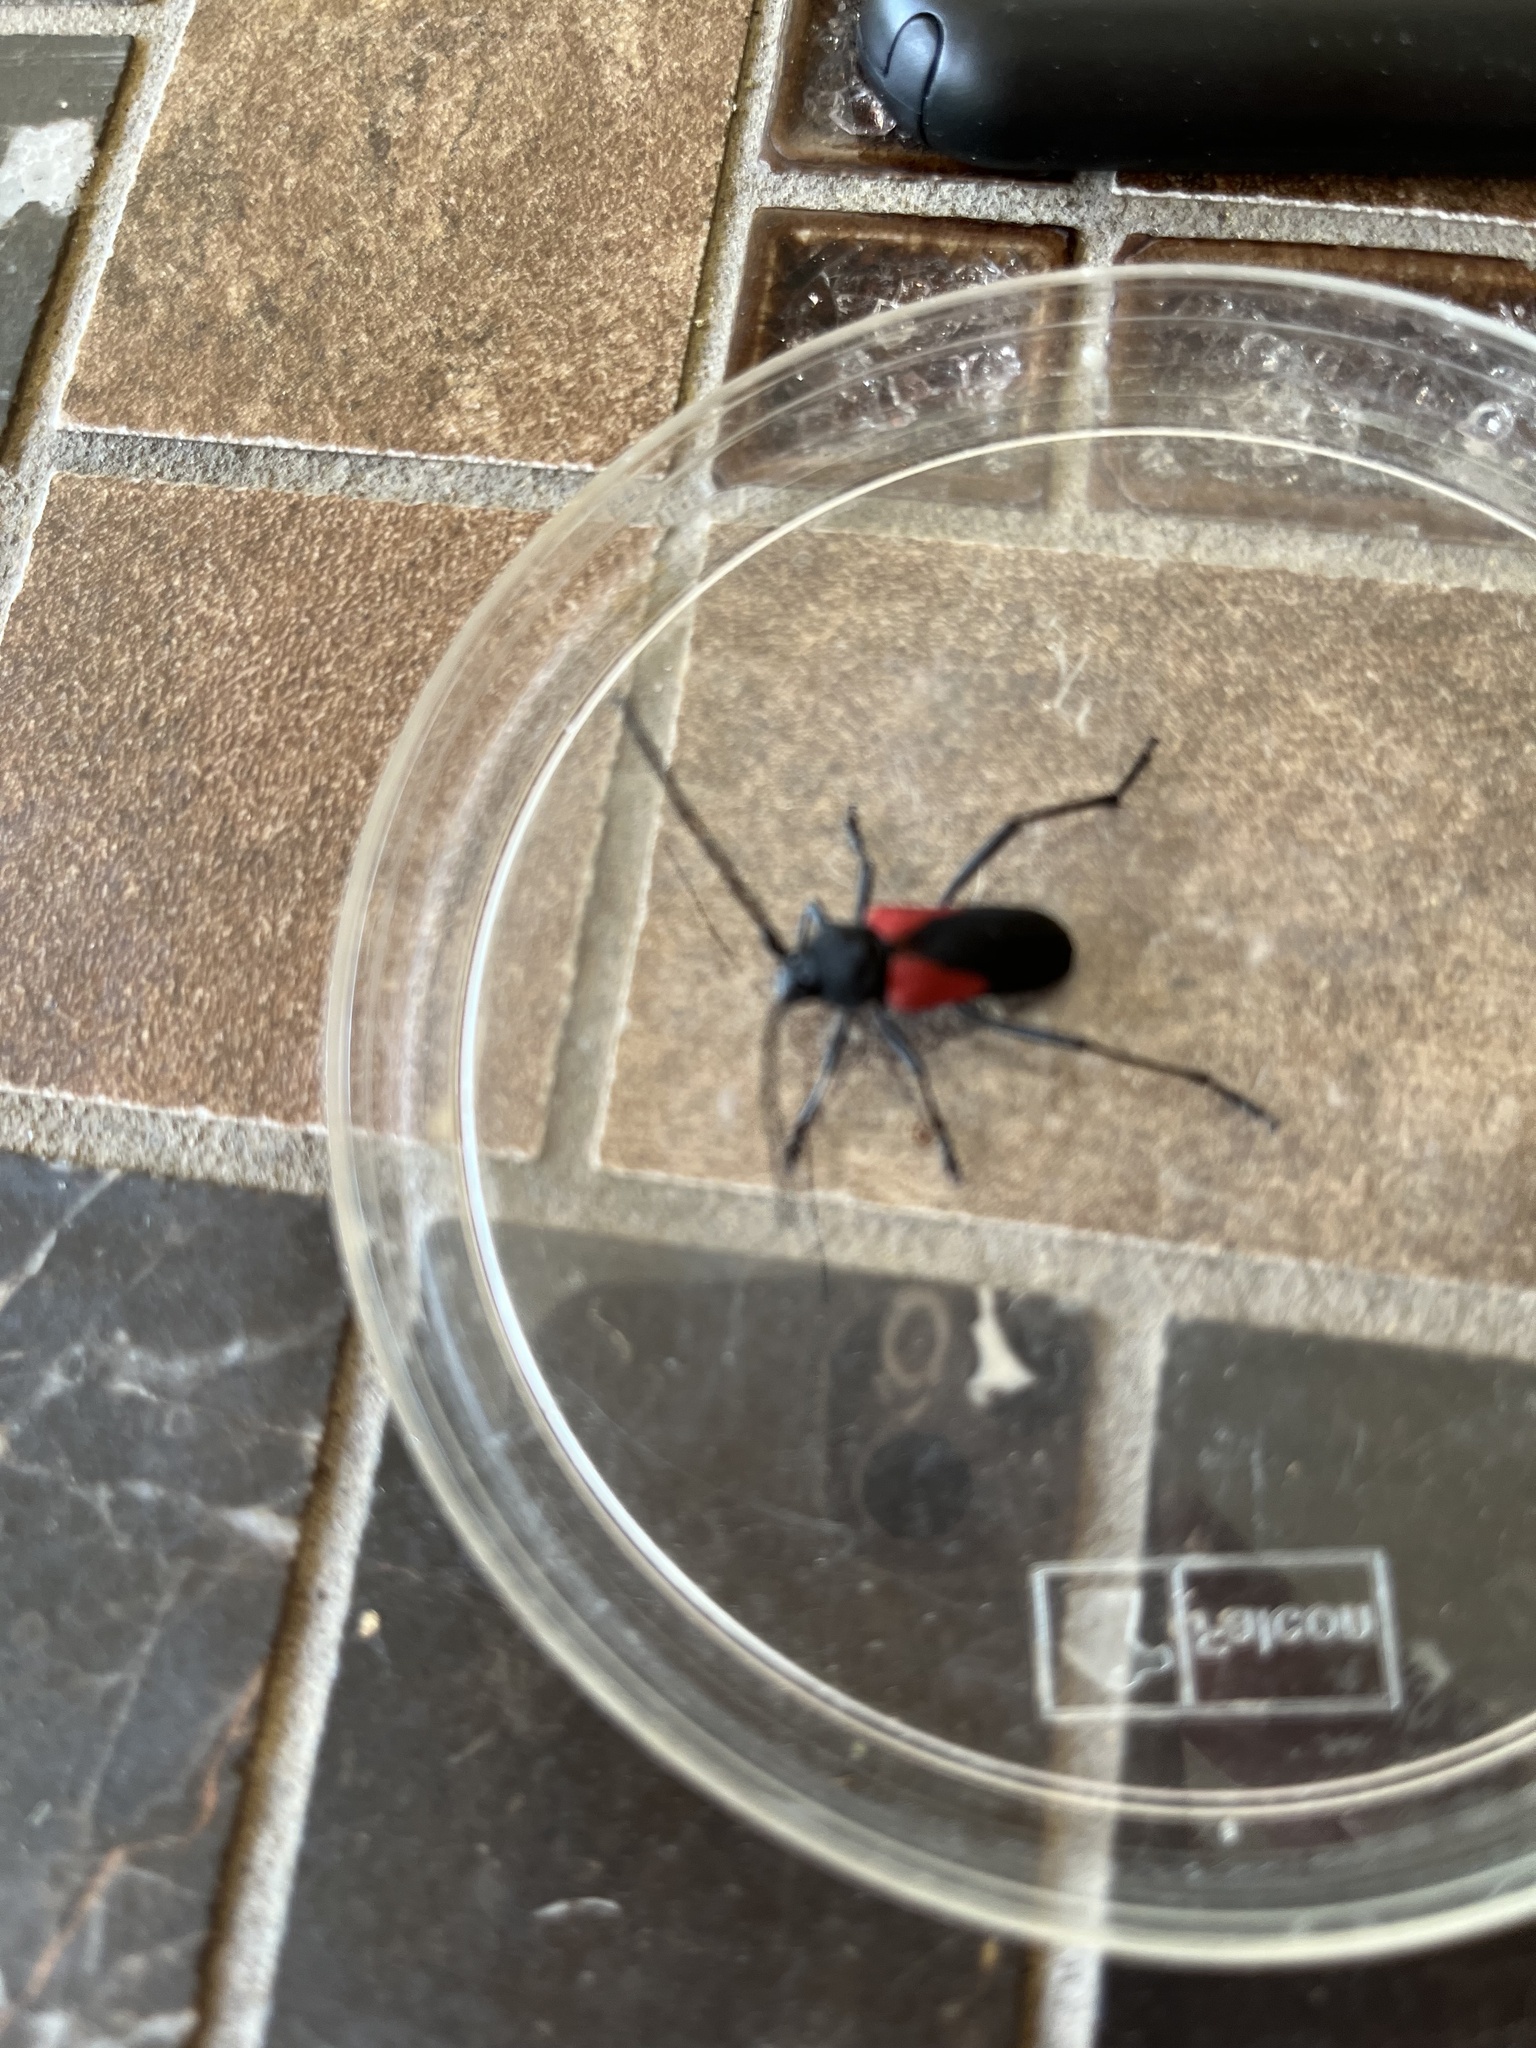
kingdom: Animalia
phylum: Arthropoda
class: Insecta
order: Coleoptera
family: Cerambycidae
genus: Purpuricenus
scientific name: Purpuricenus humeralis
